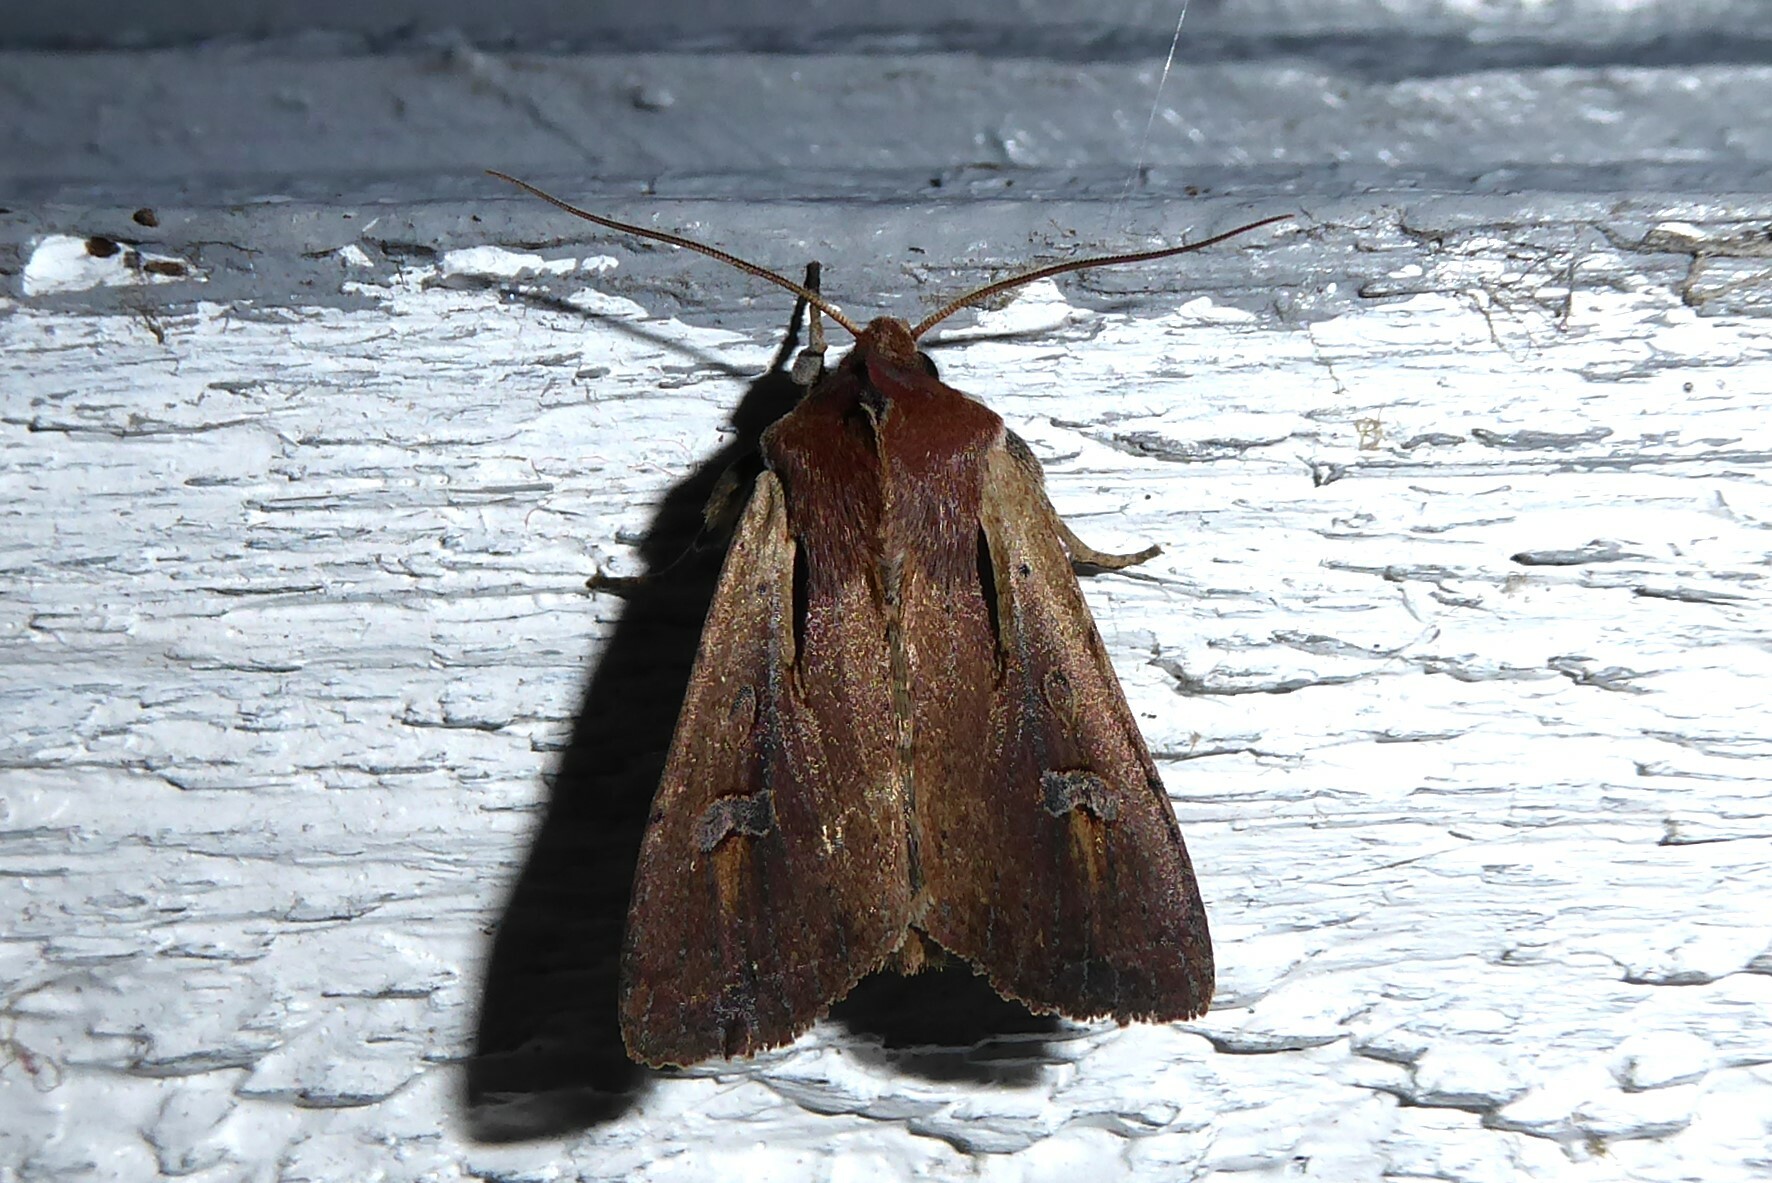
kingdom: Animalia
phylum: Arthropoda
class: Insecta
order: Lepidoptera
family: Noctuidae
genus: Ichneutica
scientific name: Ichneutica atristriga
